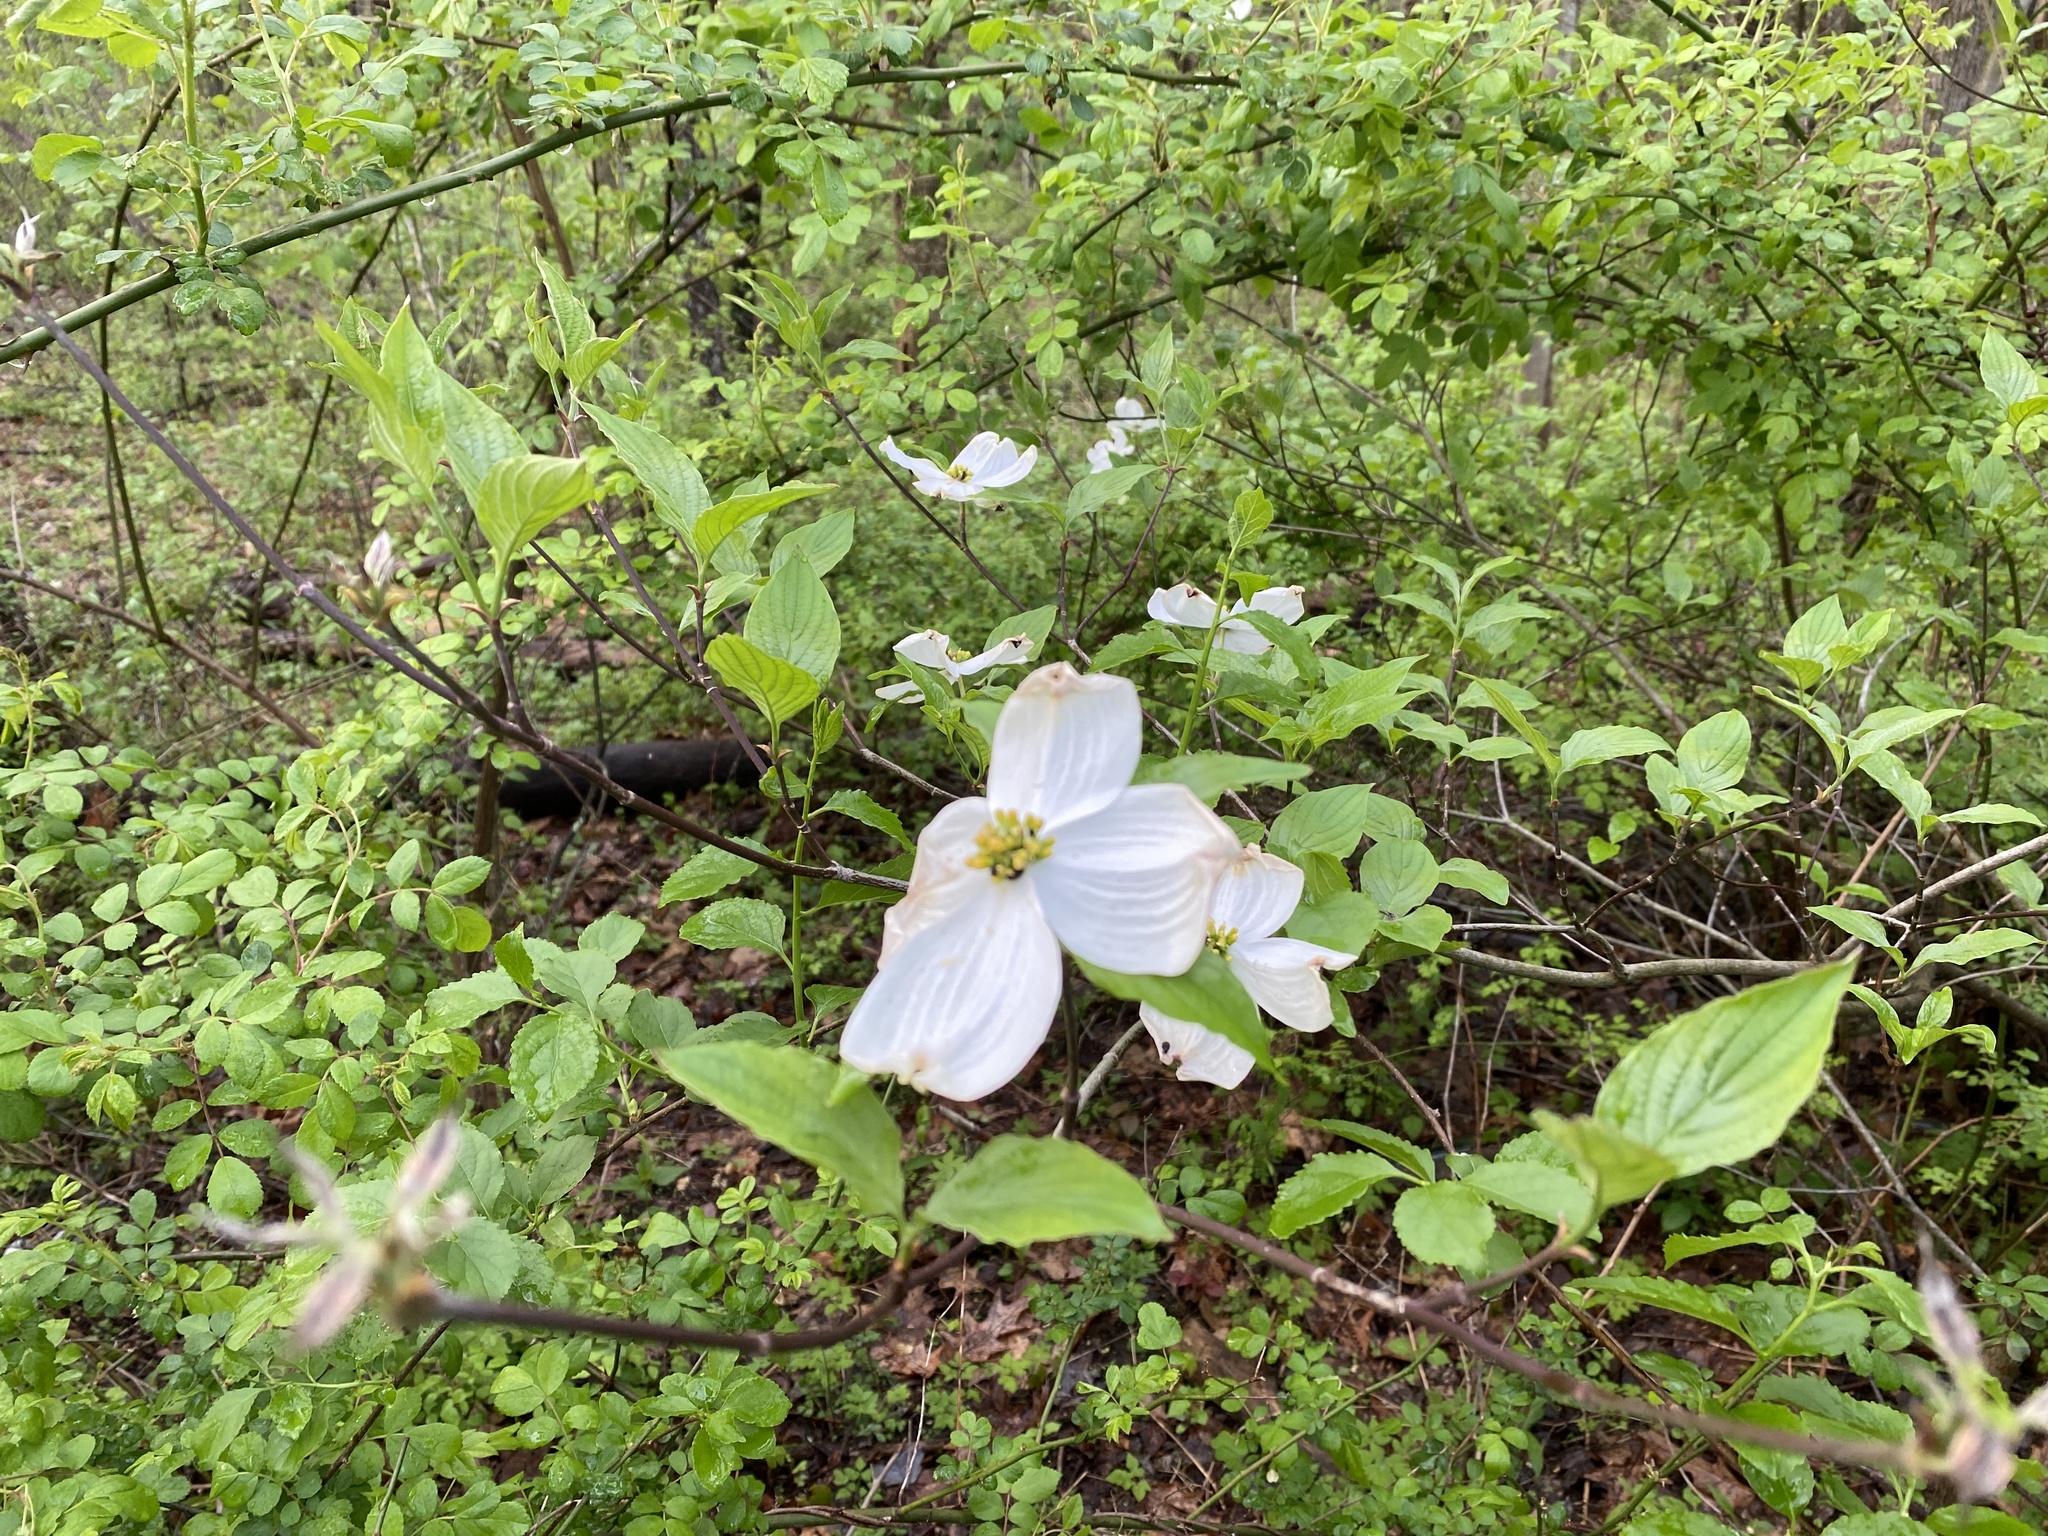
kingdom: Plantae
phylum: Tracheophyta
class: Magnoliopsida
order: Cornales
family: Cornaceae
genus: Cornus
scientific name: Cornus florida
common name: Flowering dogwood
